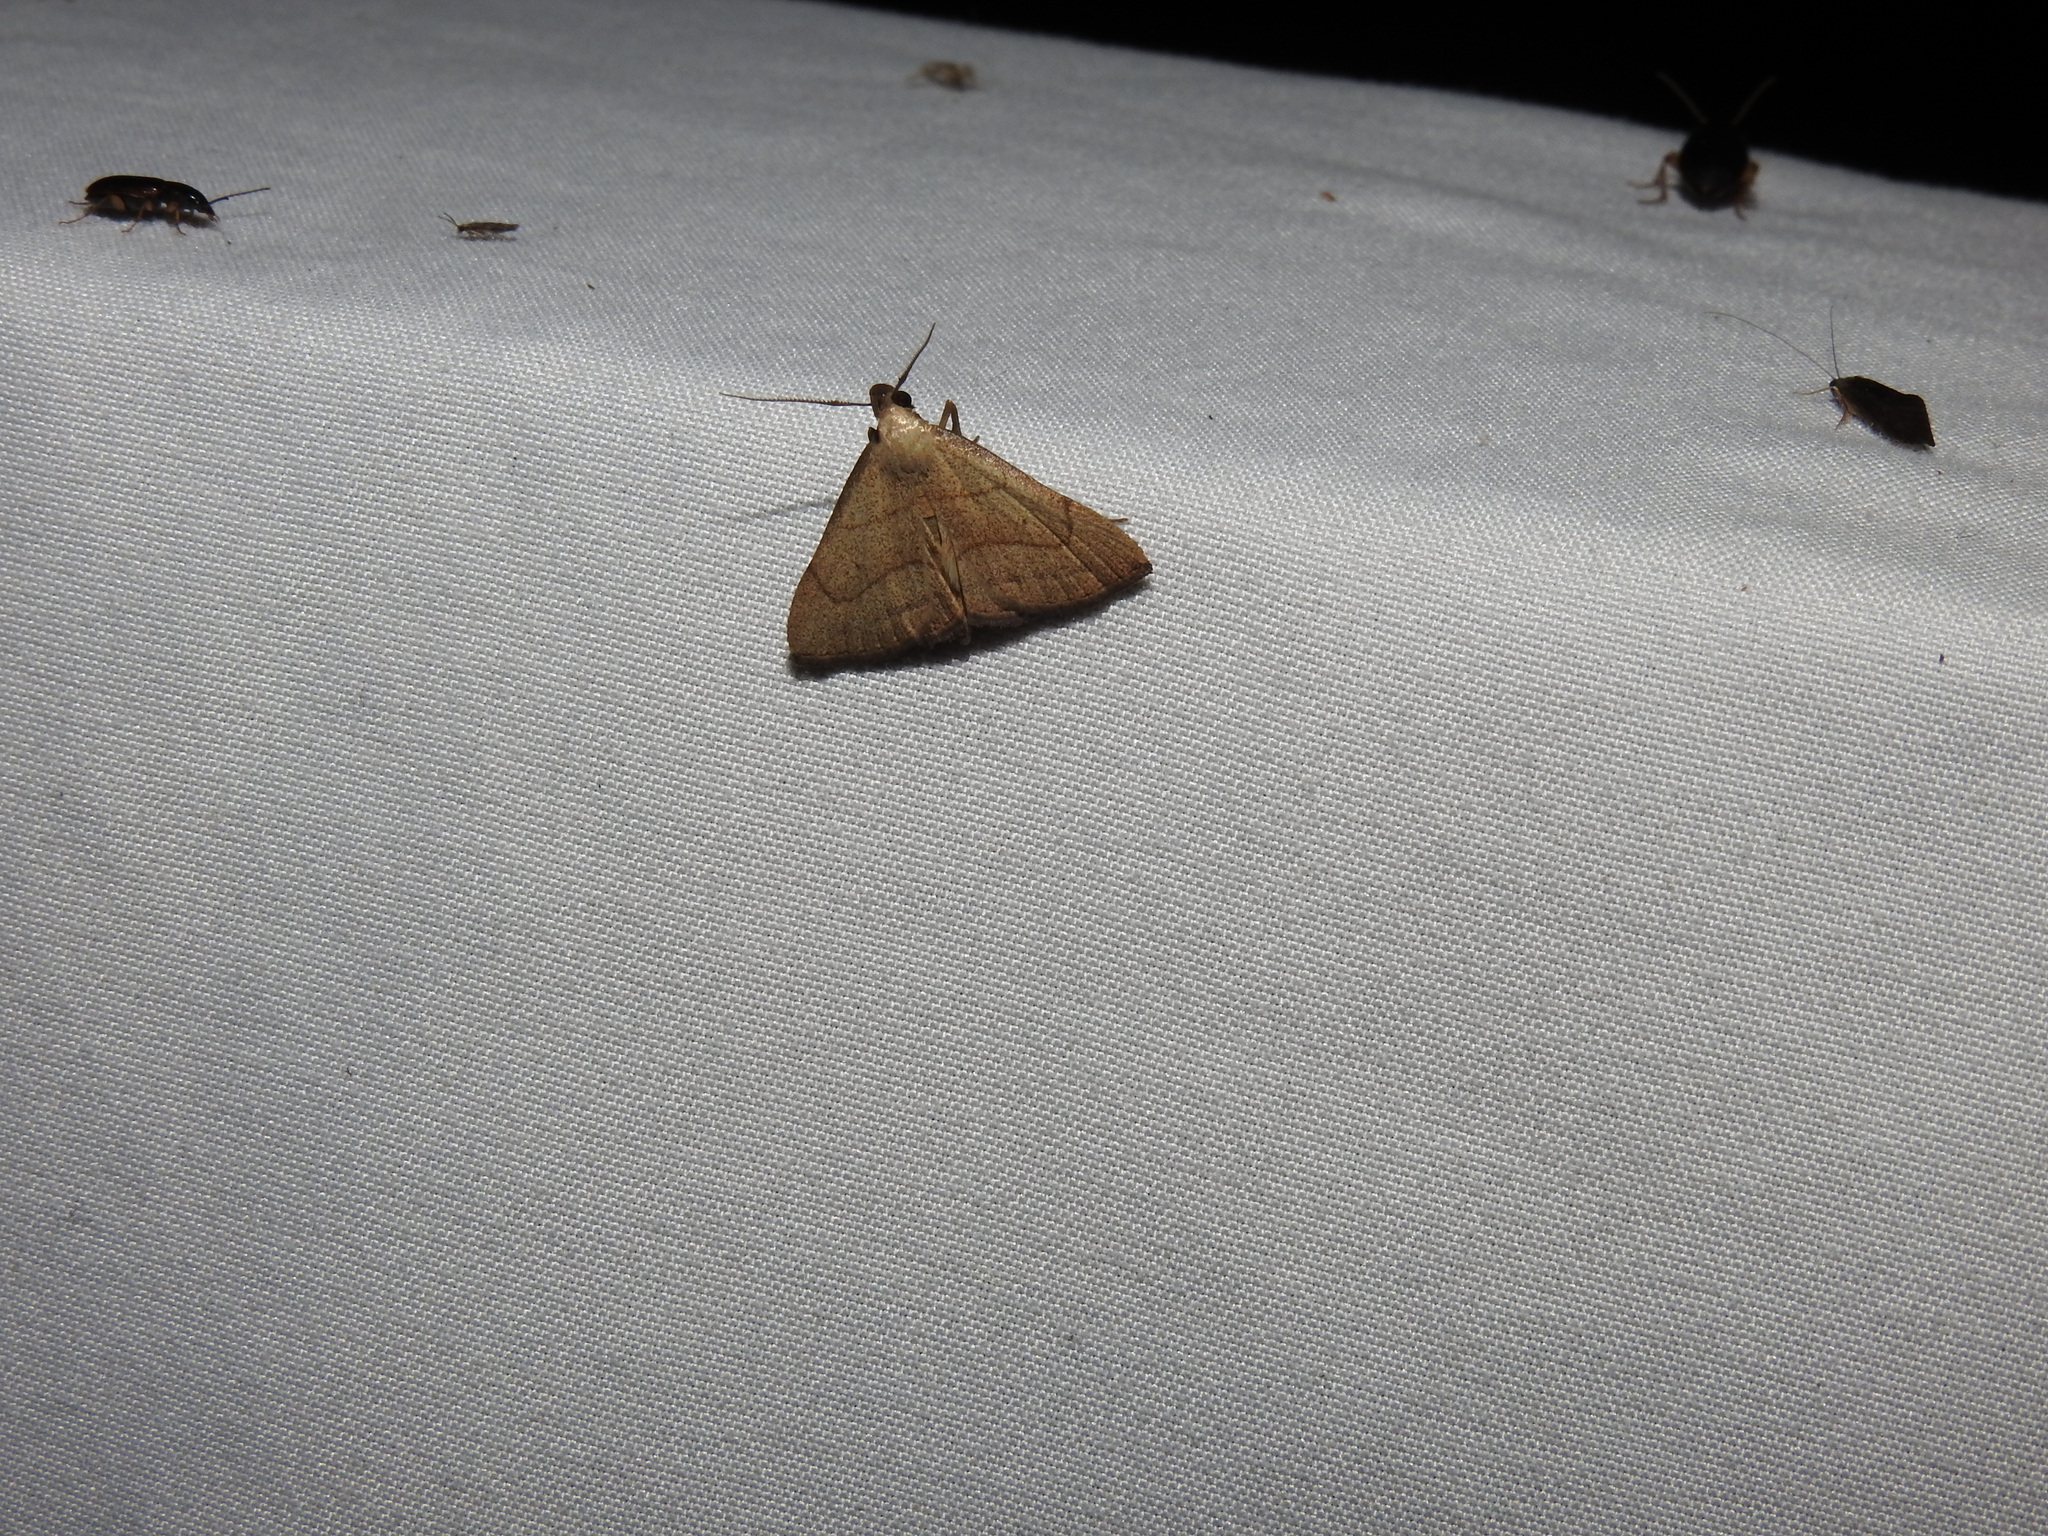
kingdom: Animalia
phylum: Arthropoda
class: Insecta
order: Lepidoptera
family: Erebidae
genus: Macrochilo
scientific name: Macrochilo litophora
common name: Brown-lined owlet
